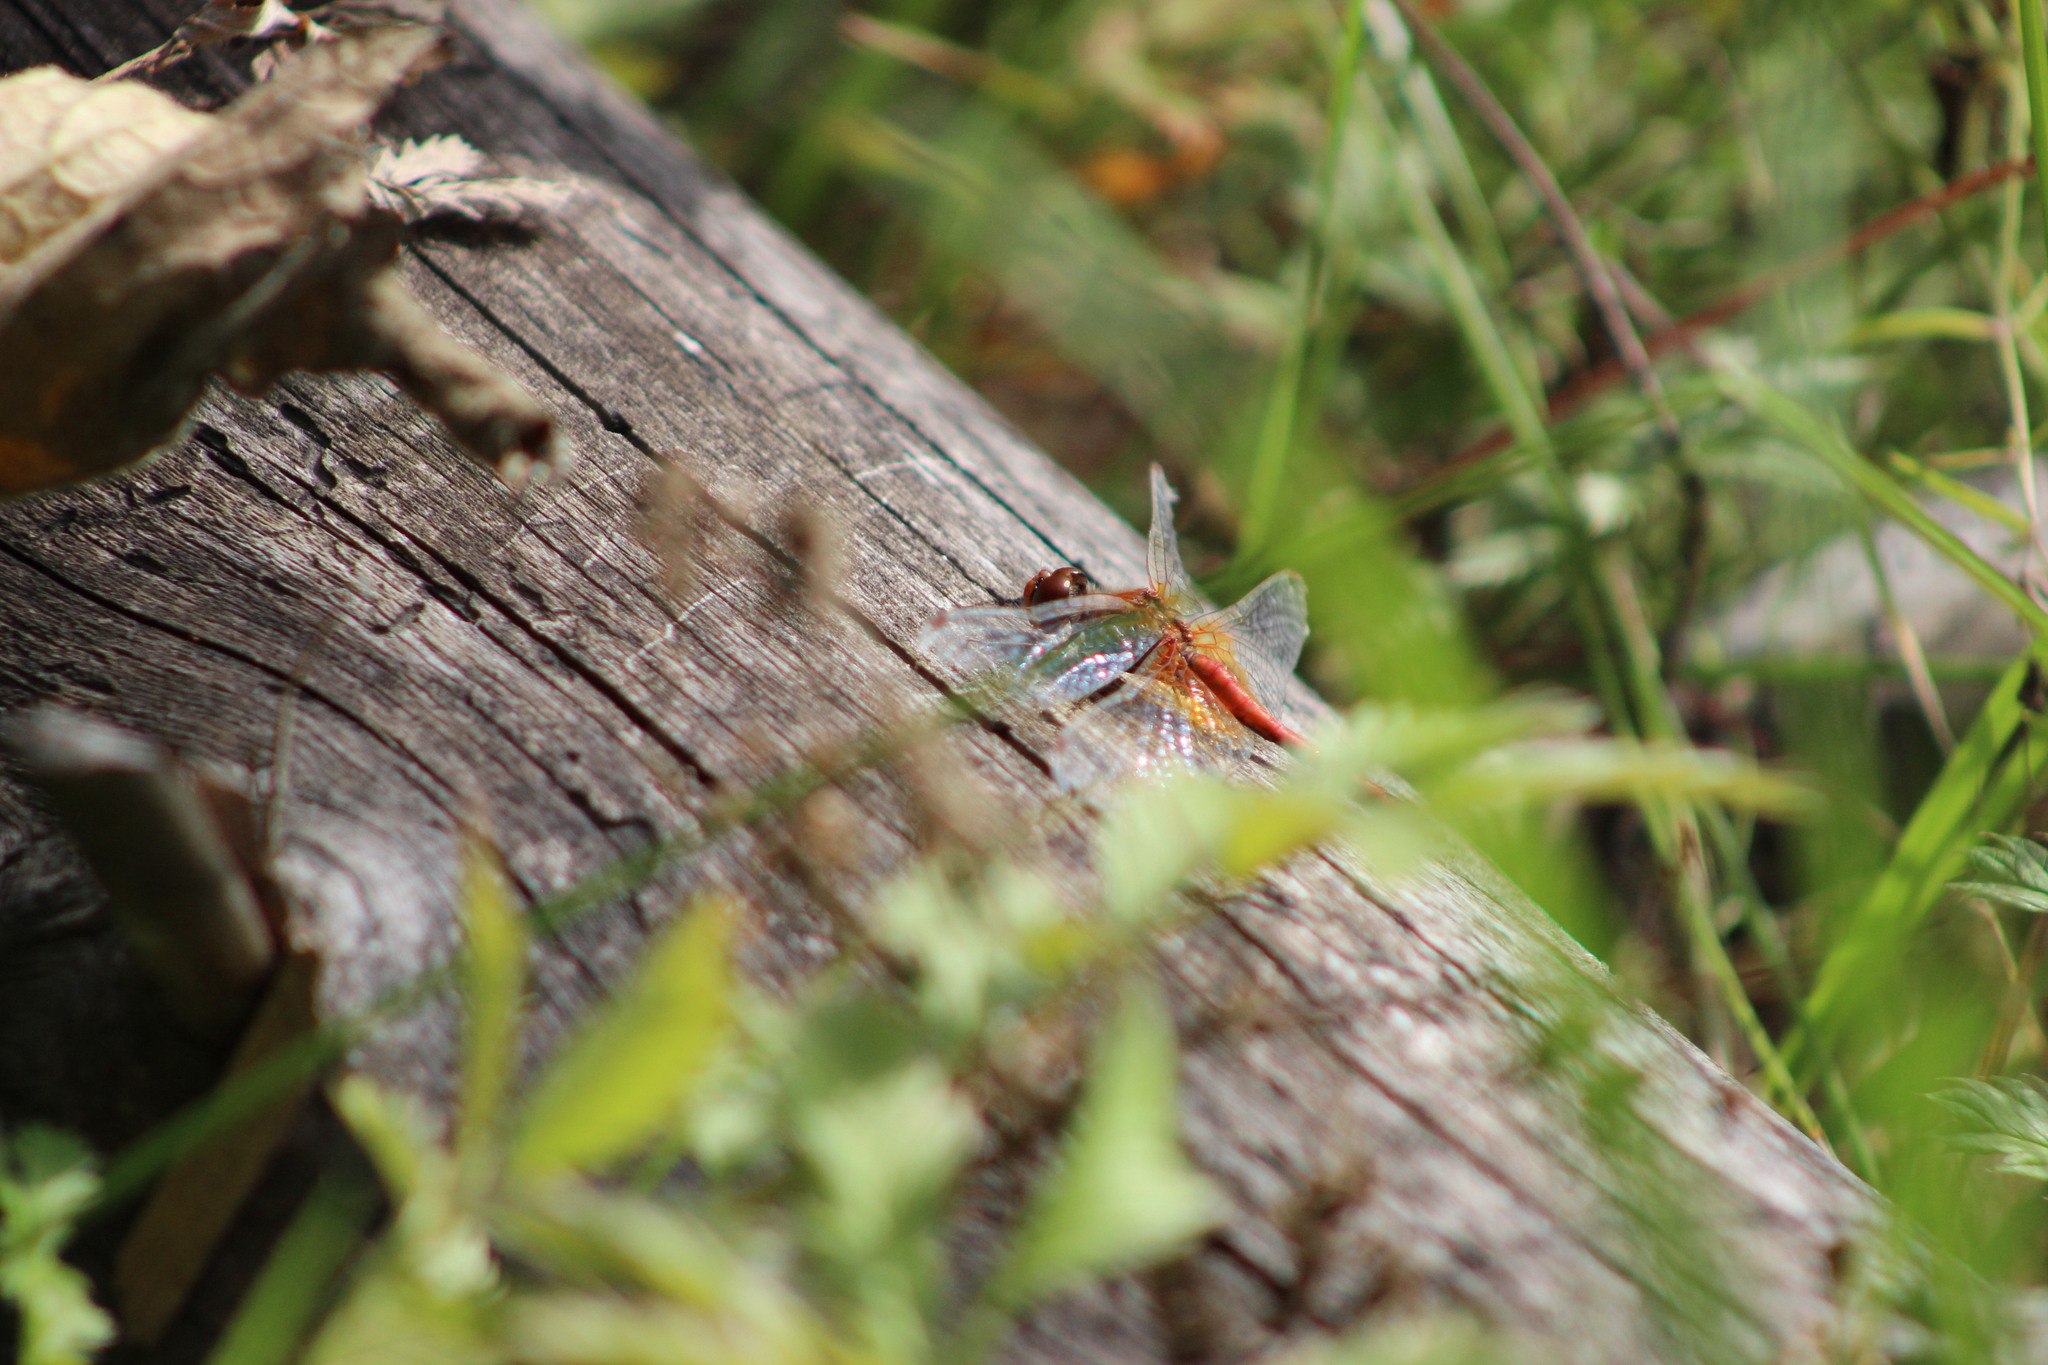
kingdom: Animalia
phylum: Arthropoda
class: Insecta
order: Odonata
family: Libellulidae
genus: Sympetrum
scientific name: Sympetrum flaveolum
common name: Yellow-winged darter
